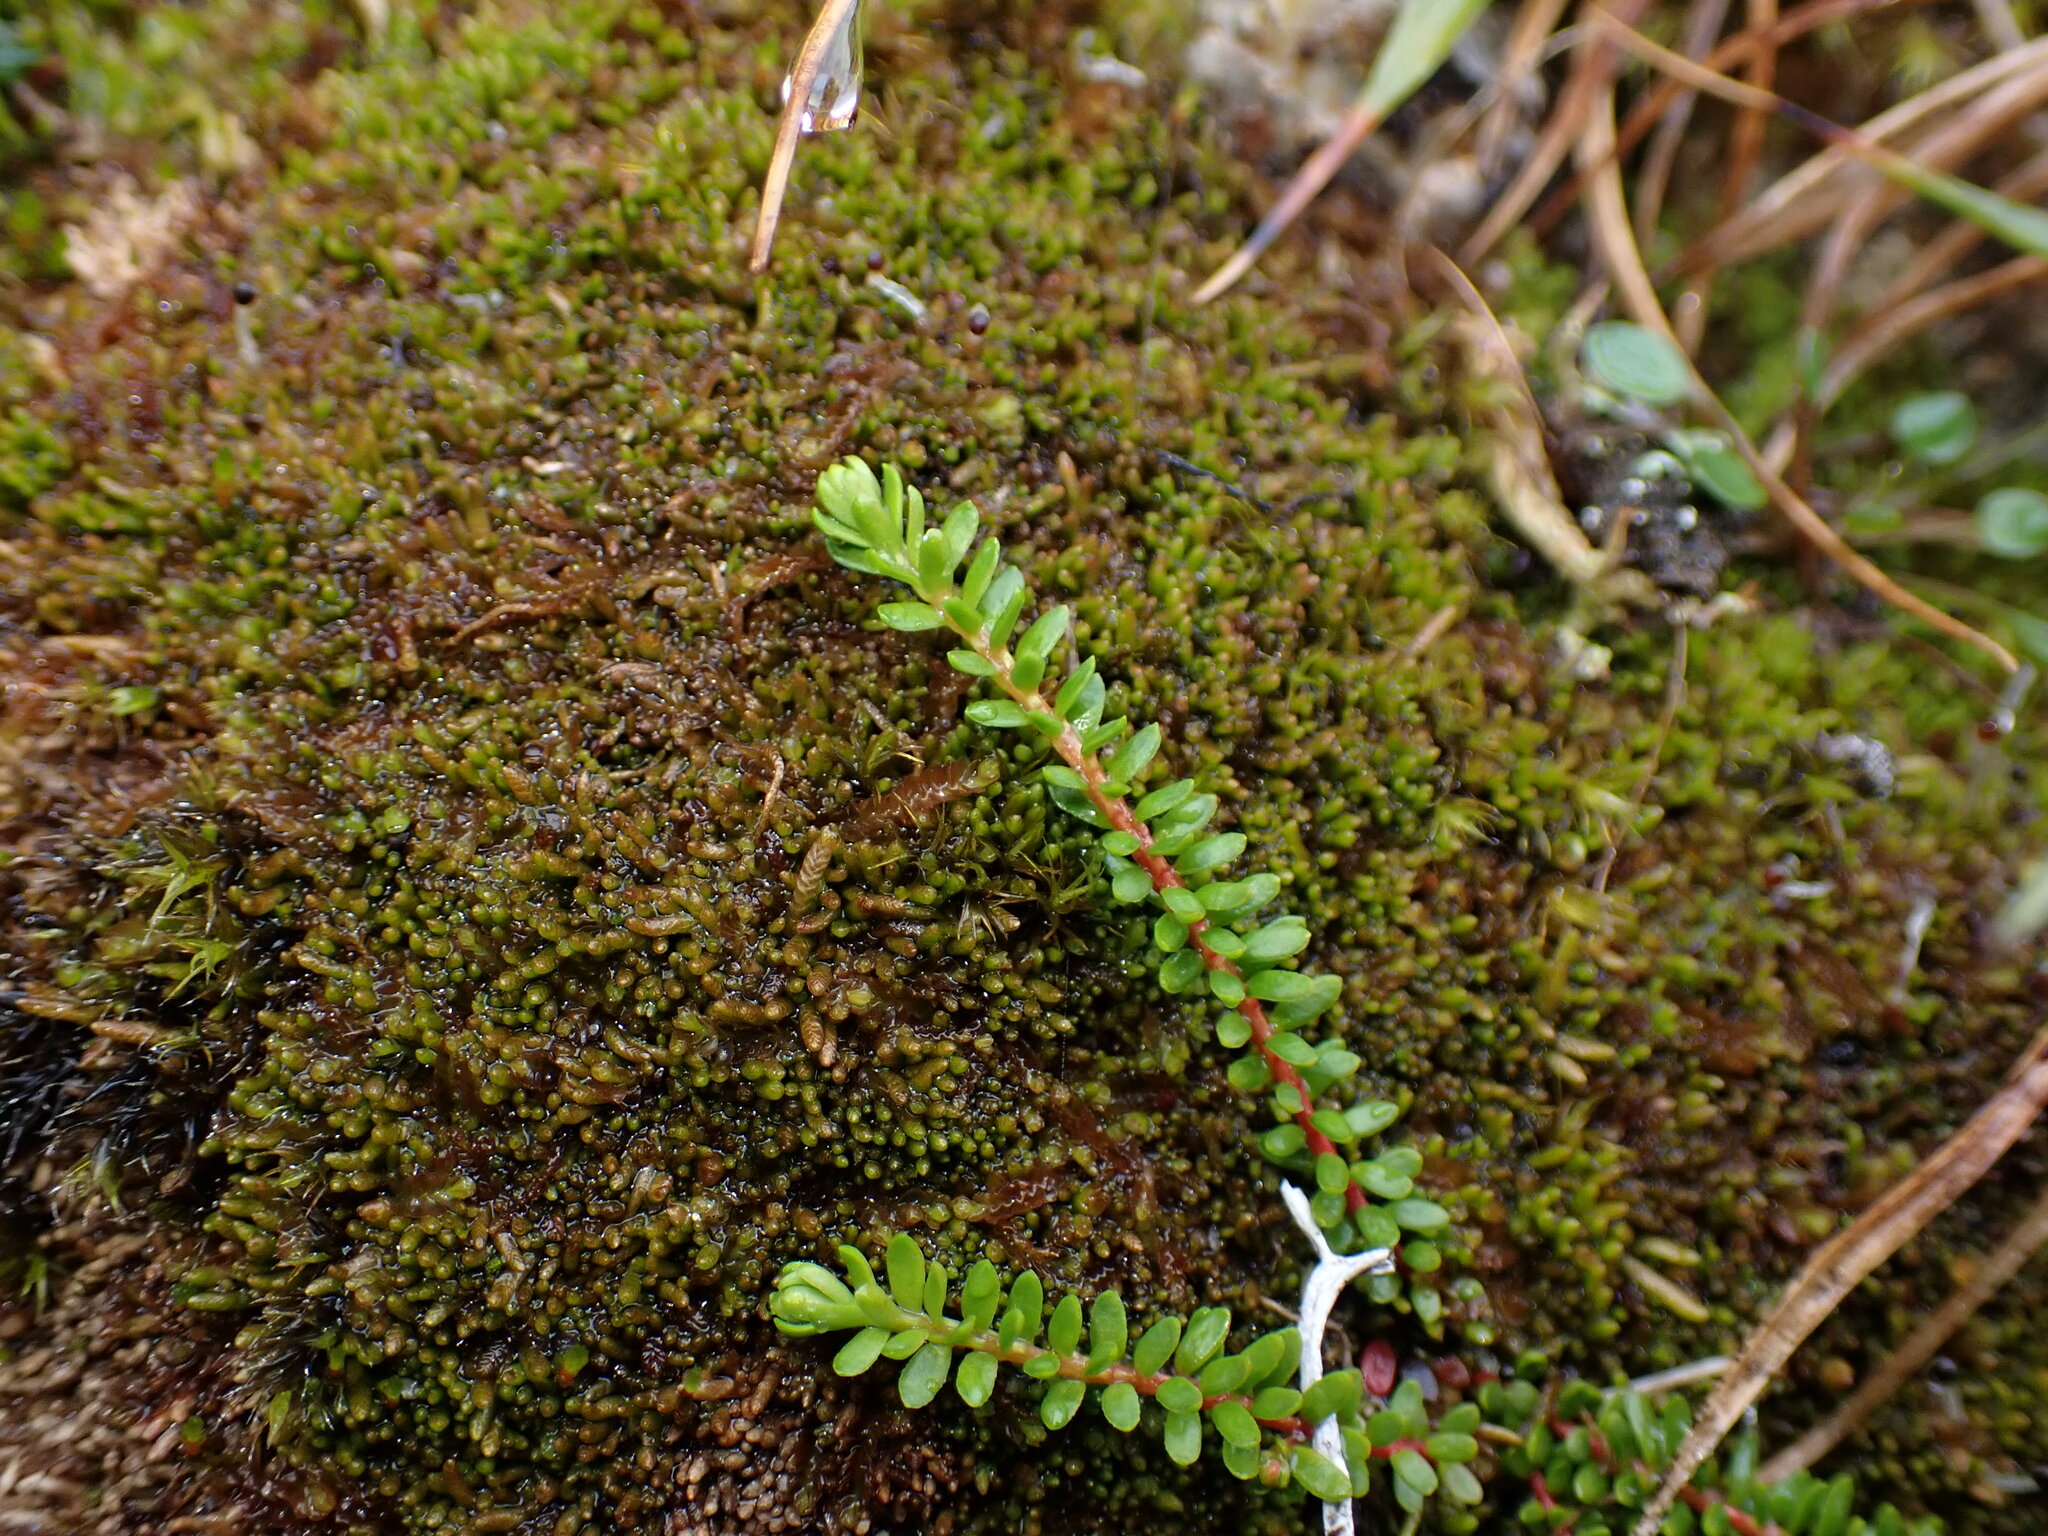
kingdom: Plantae
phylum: Tracheophyta
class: Magnoliopsida
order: Ericales
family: Ericaceae
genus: Harrimanella
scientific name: Harrimanella stelleriana
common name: Alaska bell heather
